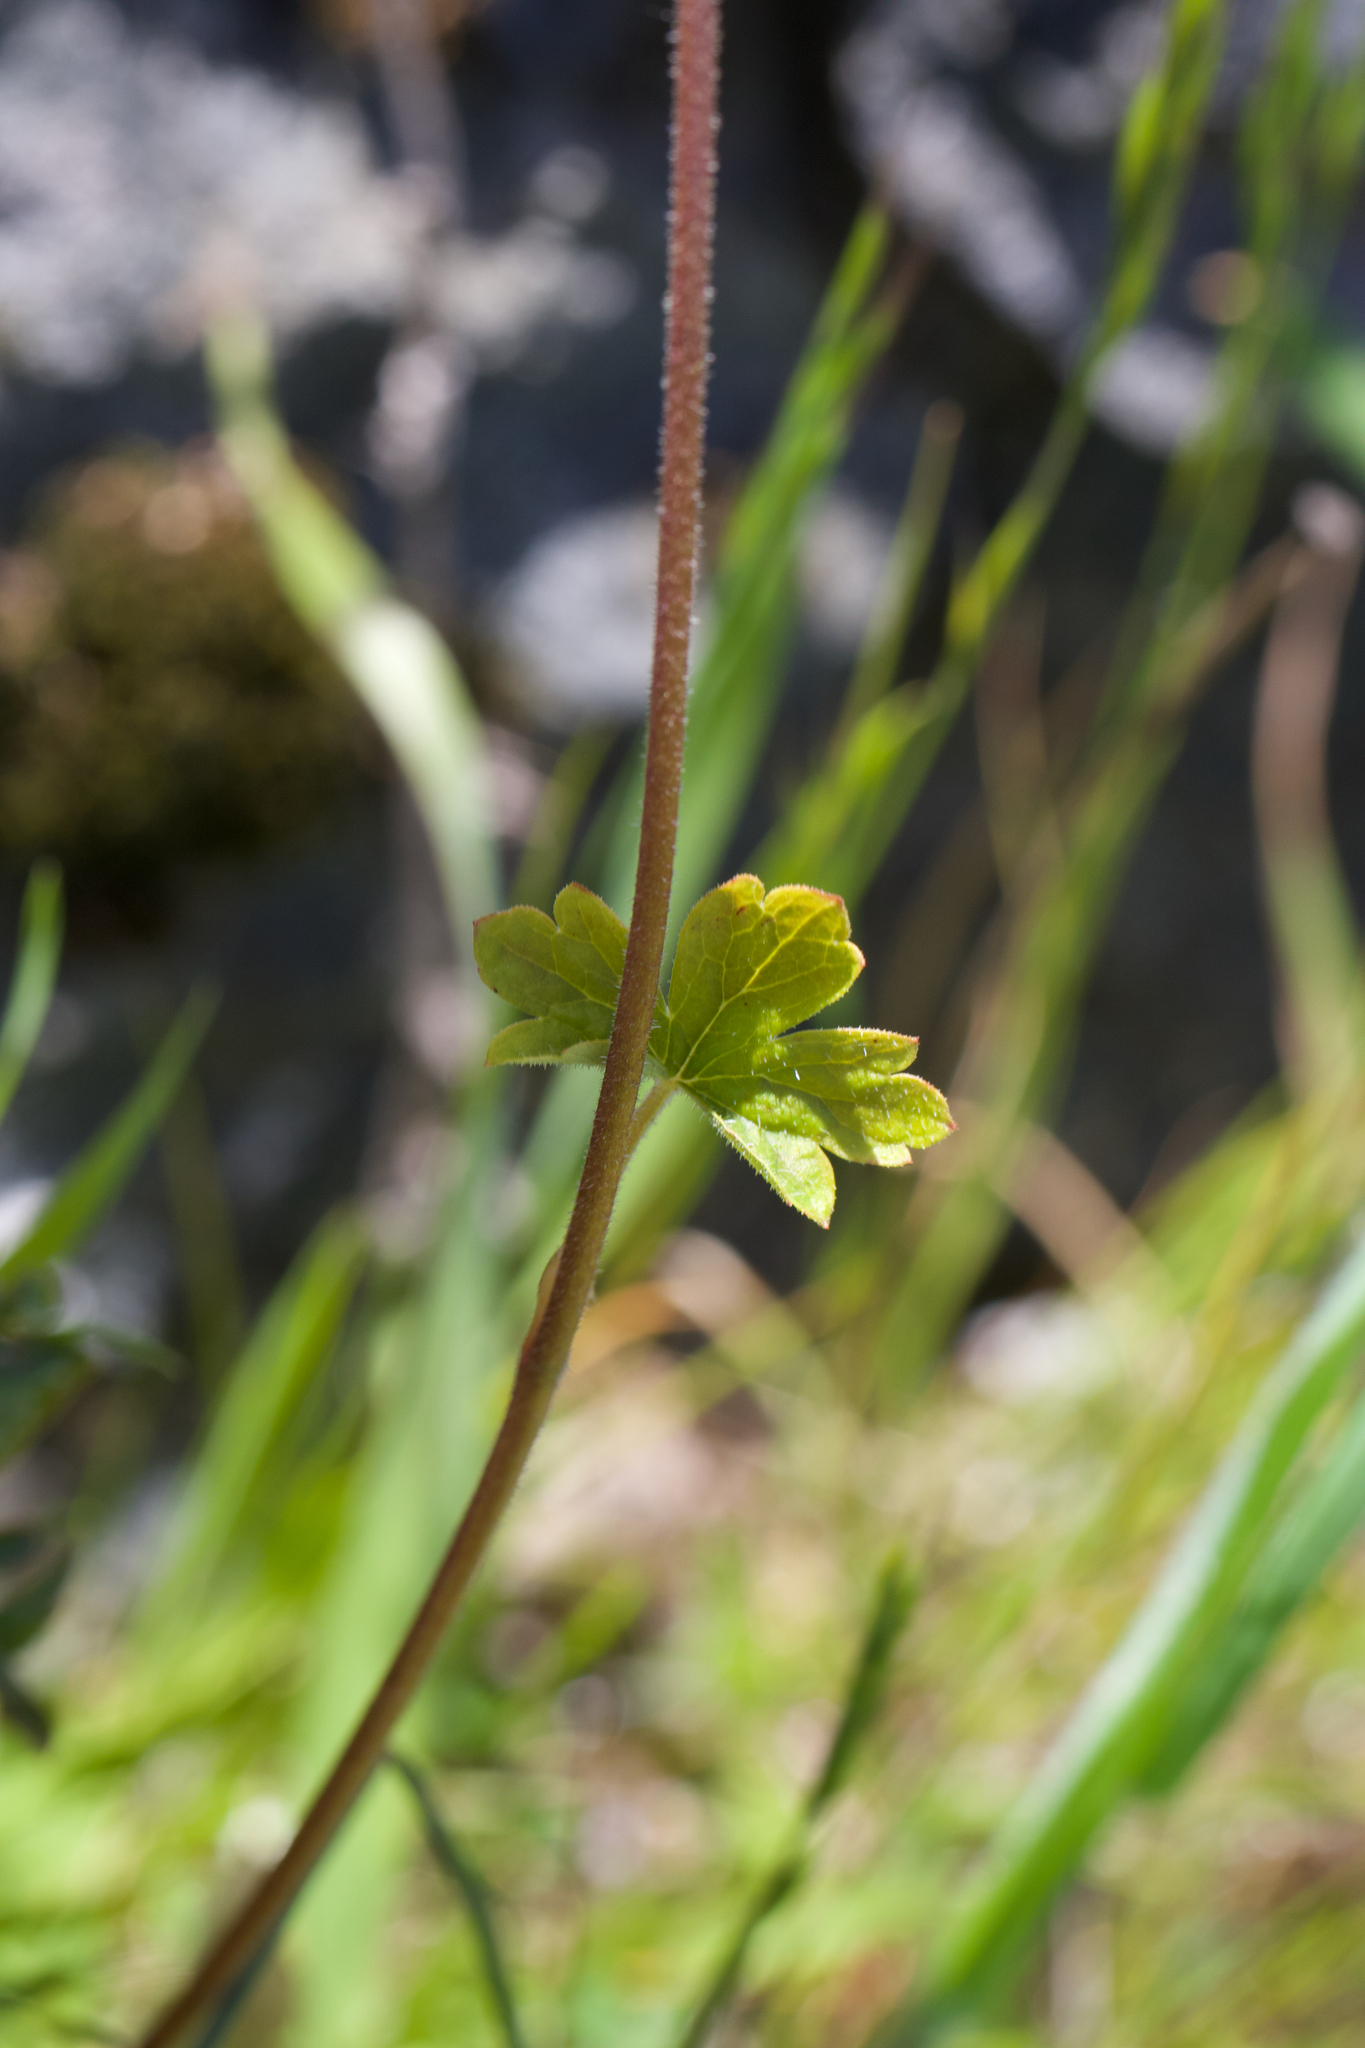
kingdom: Plantae
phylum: Tracheophyta
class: Magnoliopsida
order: Saxifragales
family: Saxifragaceae
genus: Lithophragma
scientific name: Lithophragma affine
